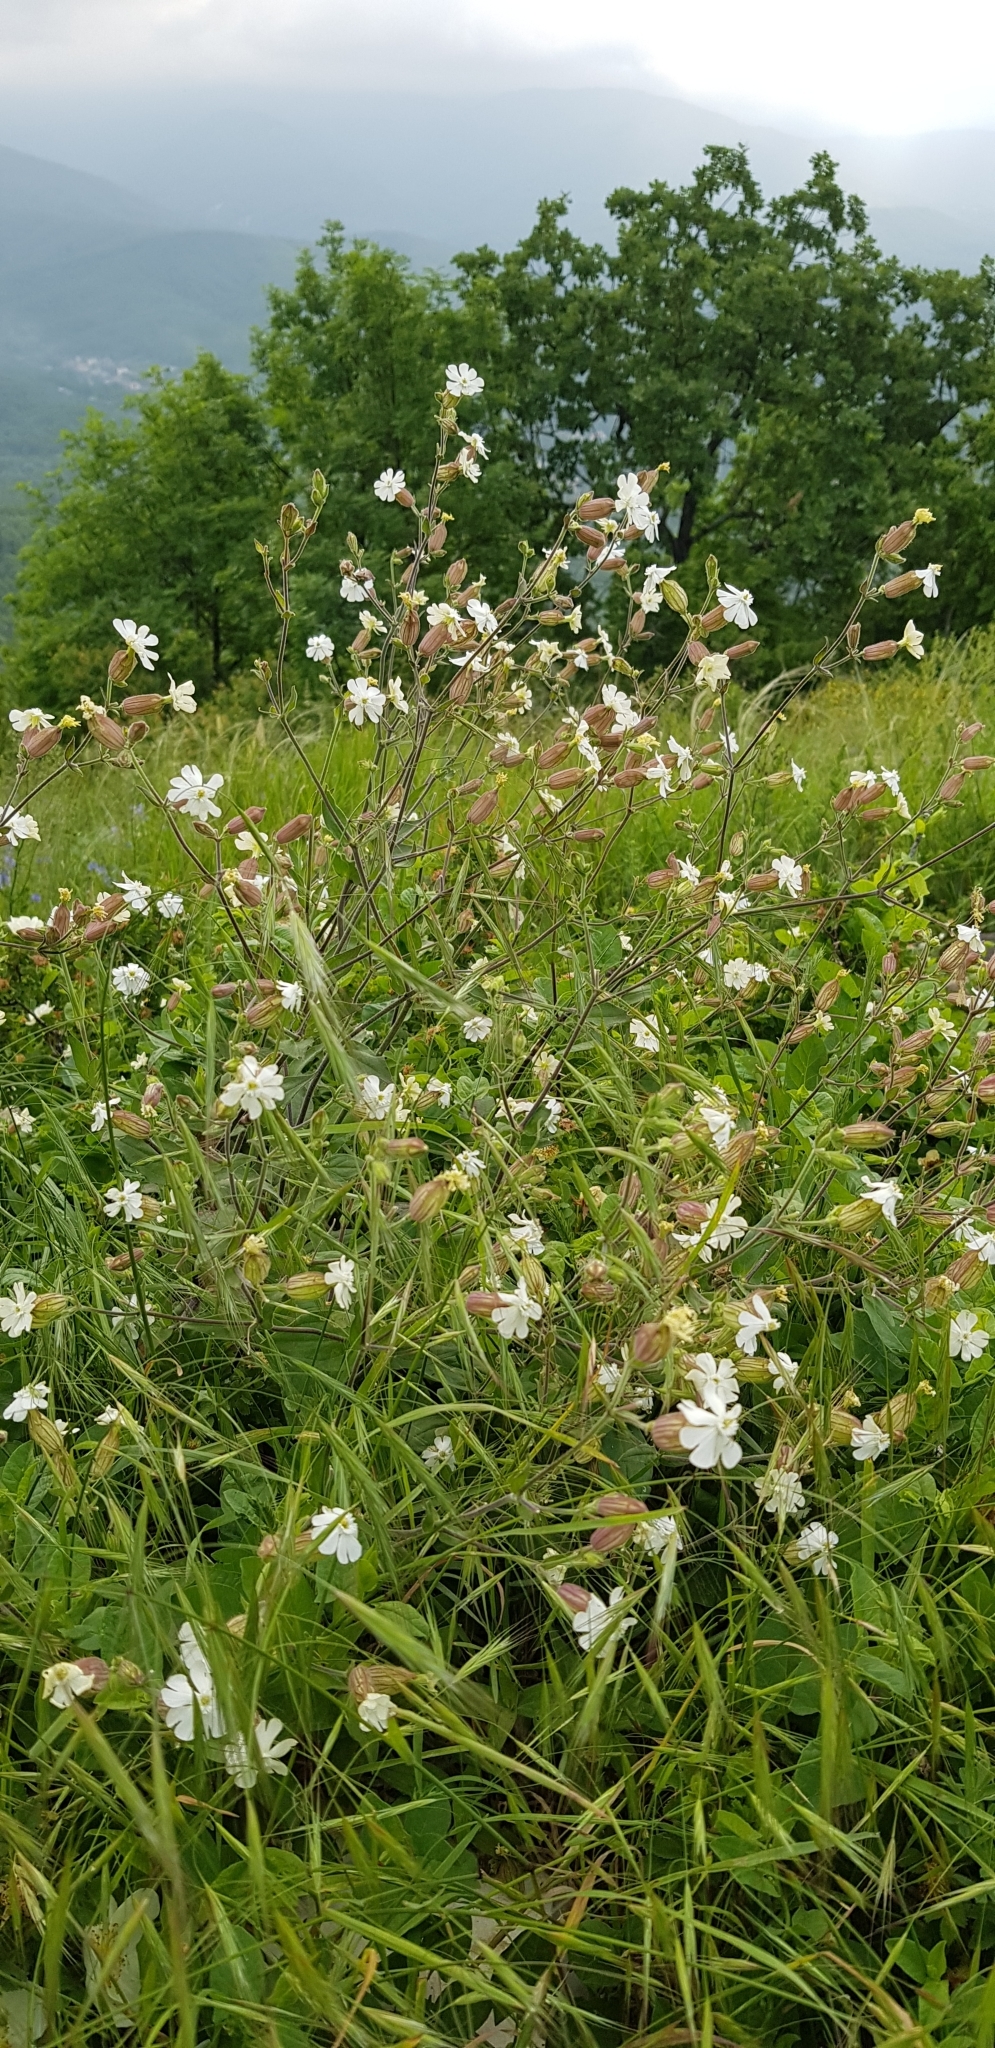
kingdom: Plantae
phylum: Tracheophyta
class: Magnoliopsida
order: Caryophyllales
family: Caryophyllaceae
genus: Silene
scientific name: Silene latifolia
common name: White campion
